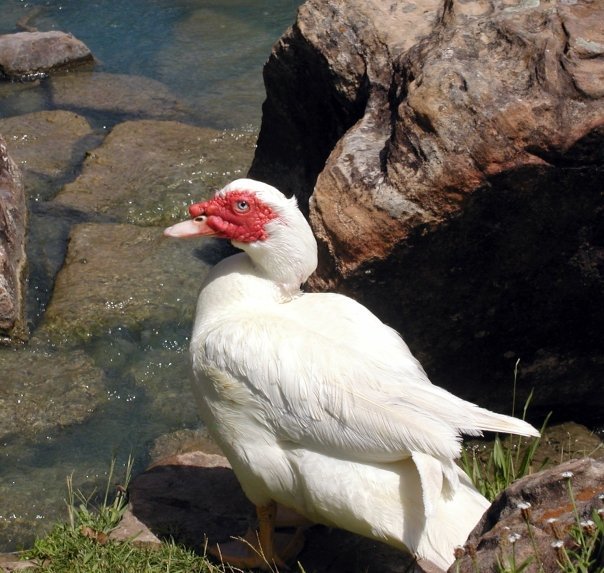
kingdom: Animalia
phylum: Chordata
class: Aves
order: Anseriformes
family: Anatidae
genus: Cairina
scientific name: Cairina moschata
